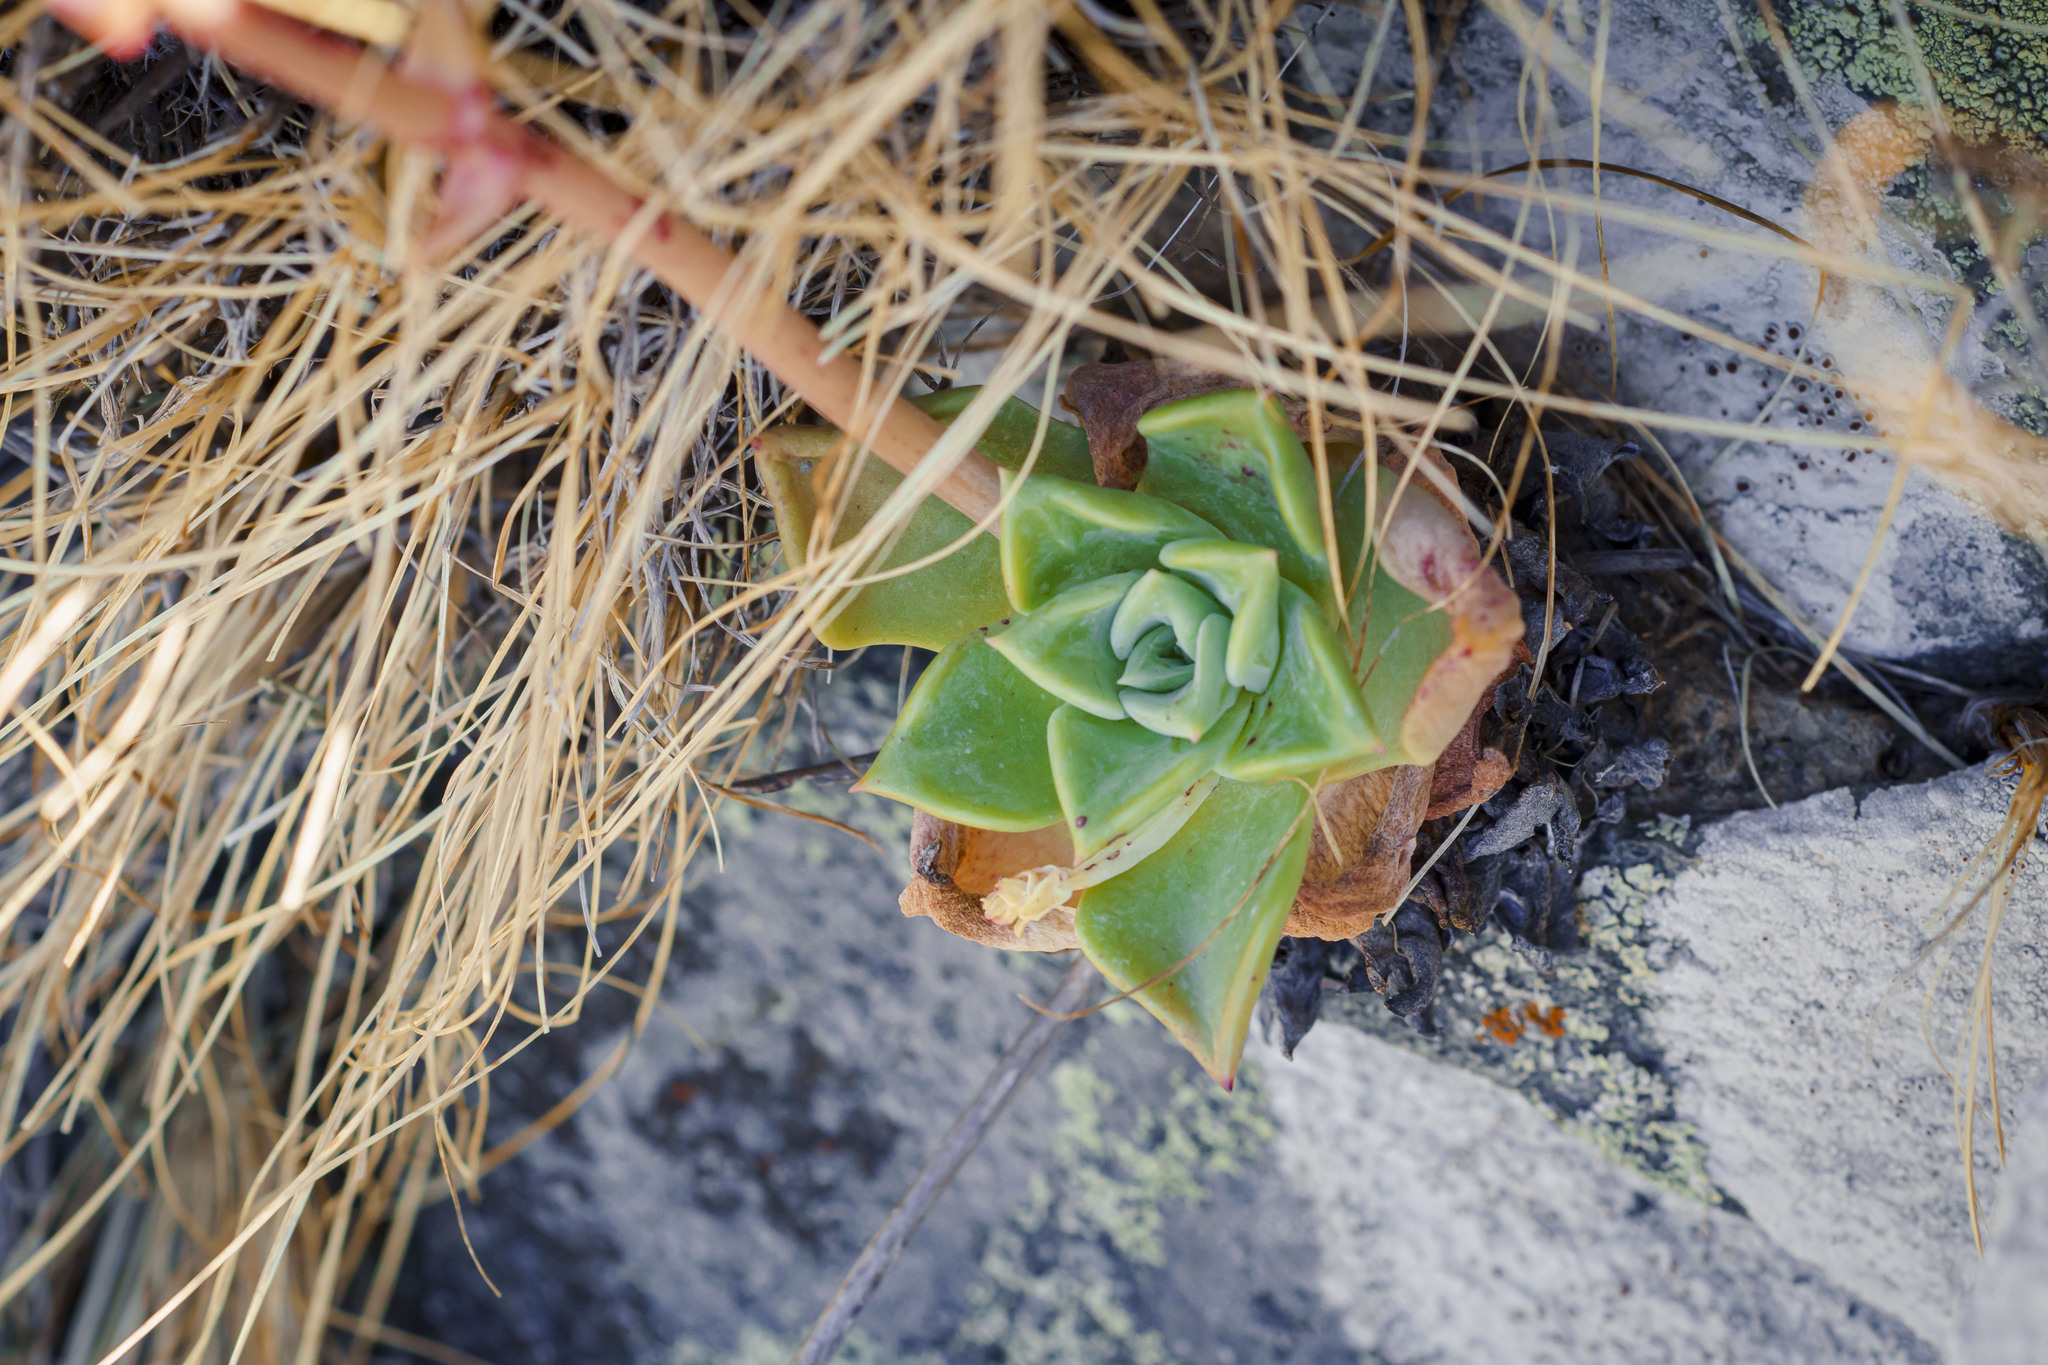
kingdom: Plantae
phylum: Tracheophyta
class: Magnoliopsida
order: Saxifragales
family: Crassulaceae
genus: Dudleya
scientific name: Dudleya rigida
